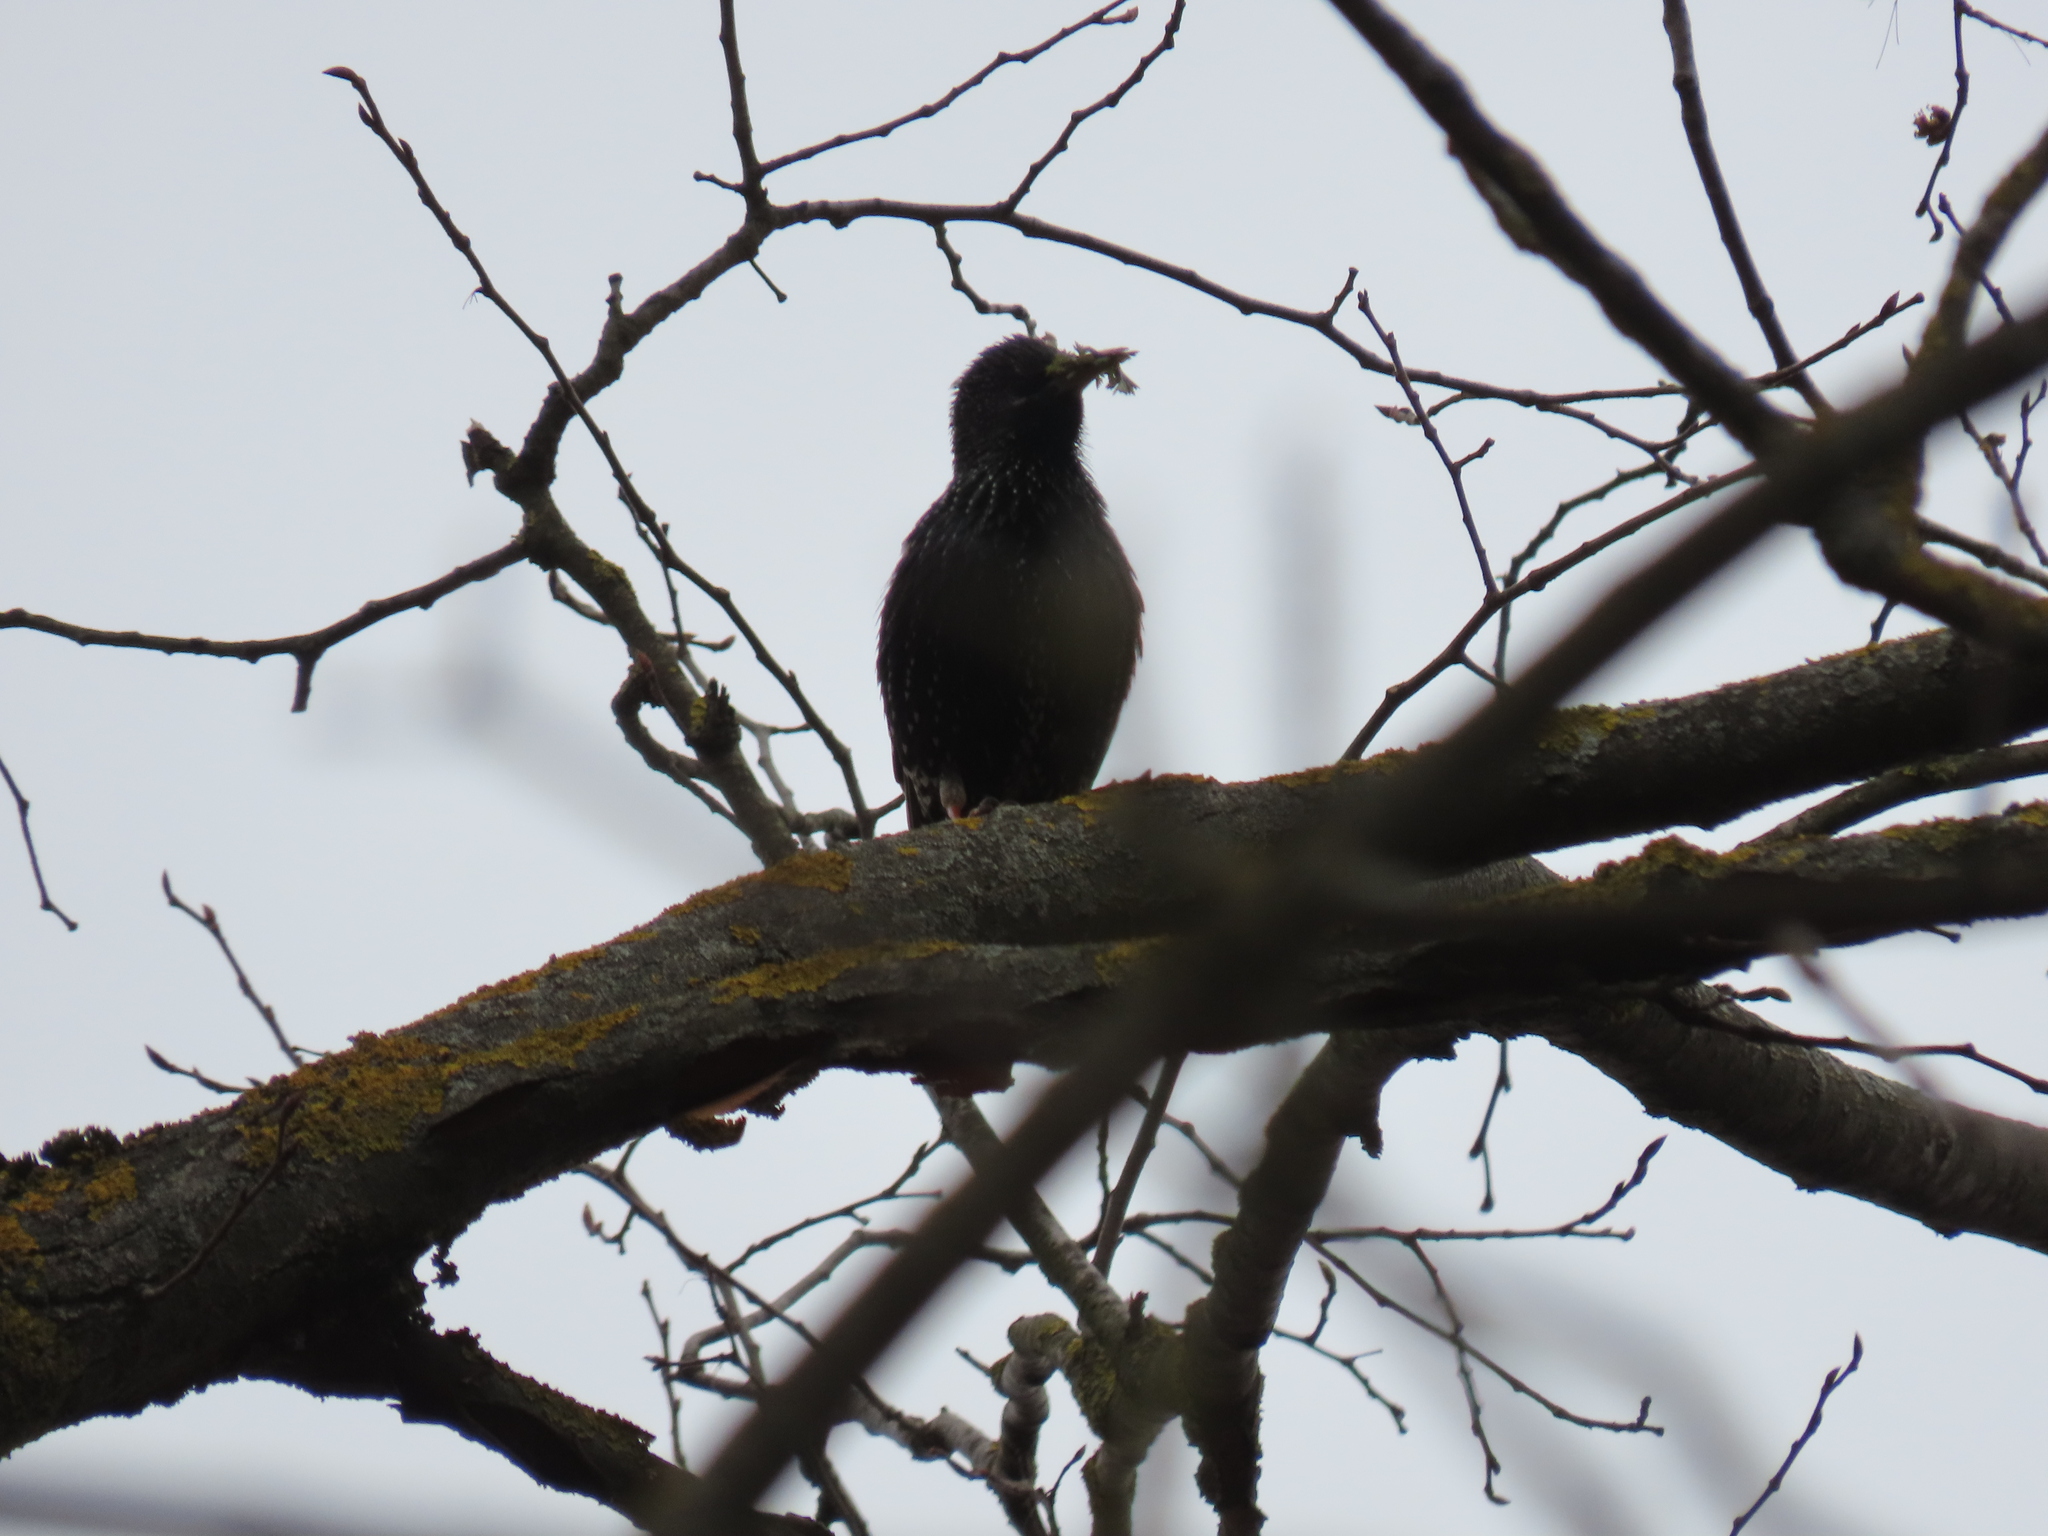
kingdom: Animalia
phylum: Chordata
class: Aves
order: Passeriformes
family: Sturnidae
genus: Sturnus
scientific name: Sturnus vulgaris
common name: Common starling
